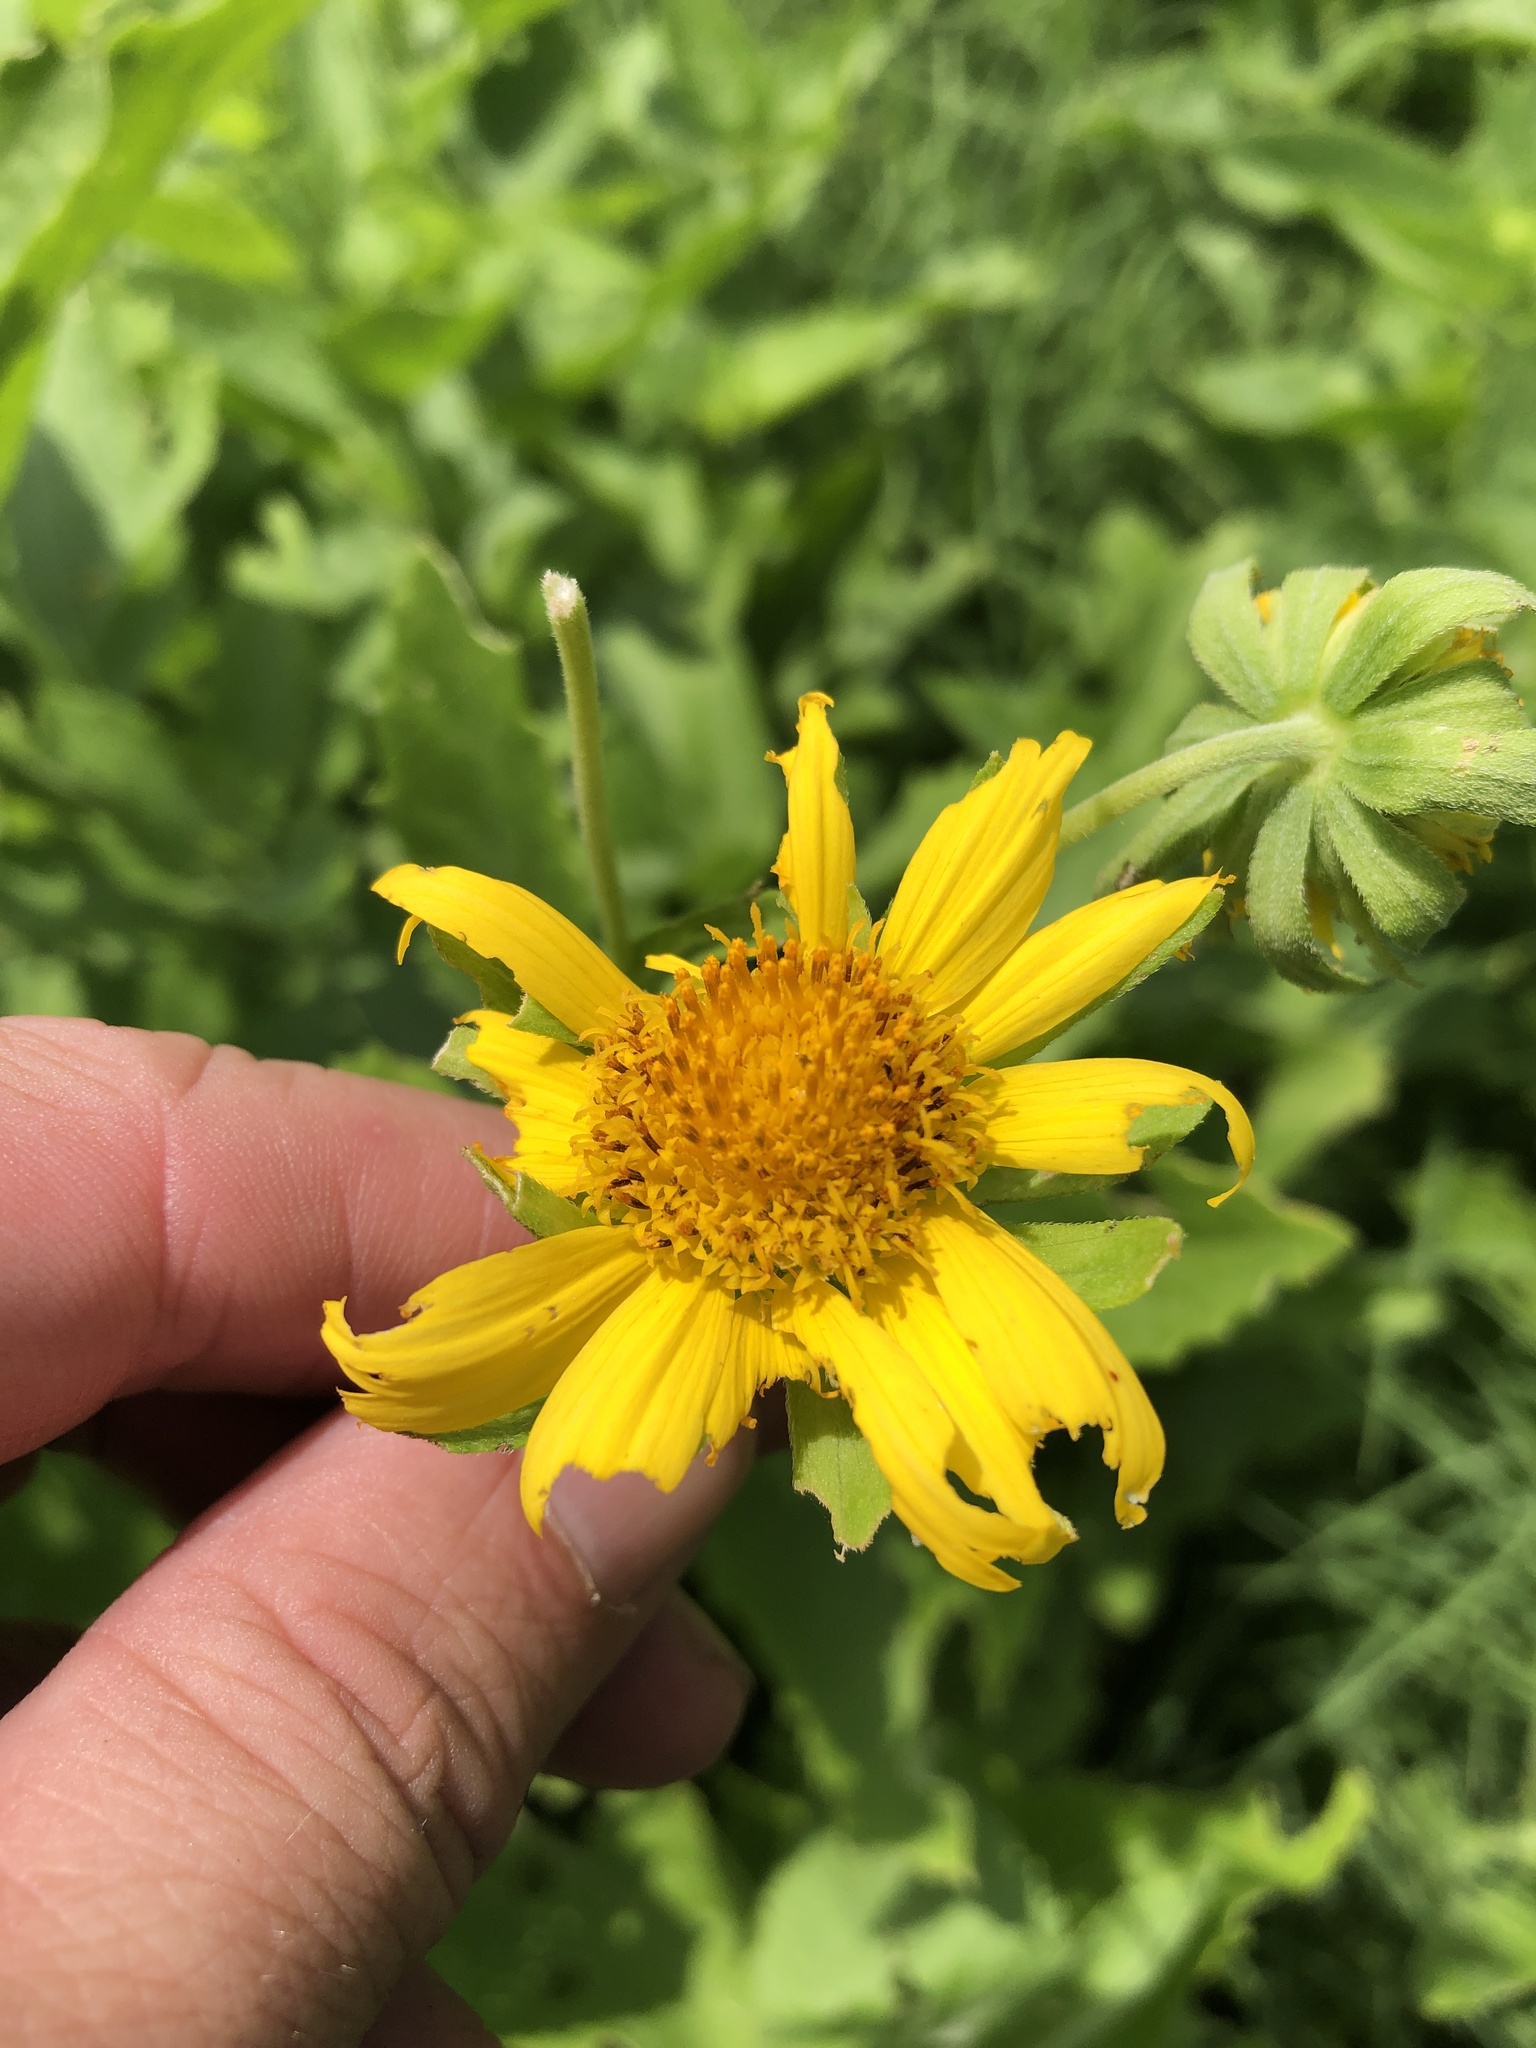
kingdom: Plantae
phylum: Tracheophyta
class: Magnoliopsida
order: Asterales
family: Asteraceae
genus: Verbesina
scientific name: Verbesina encelioides
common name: Golden crownbeard
